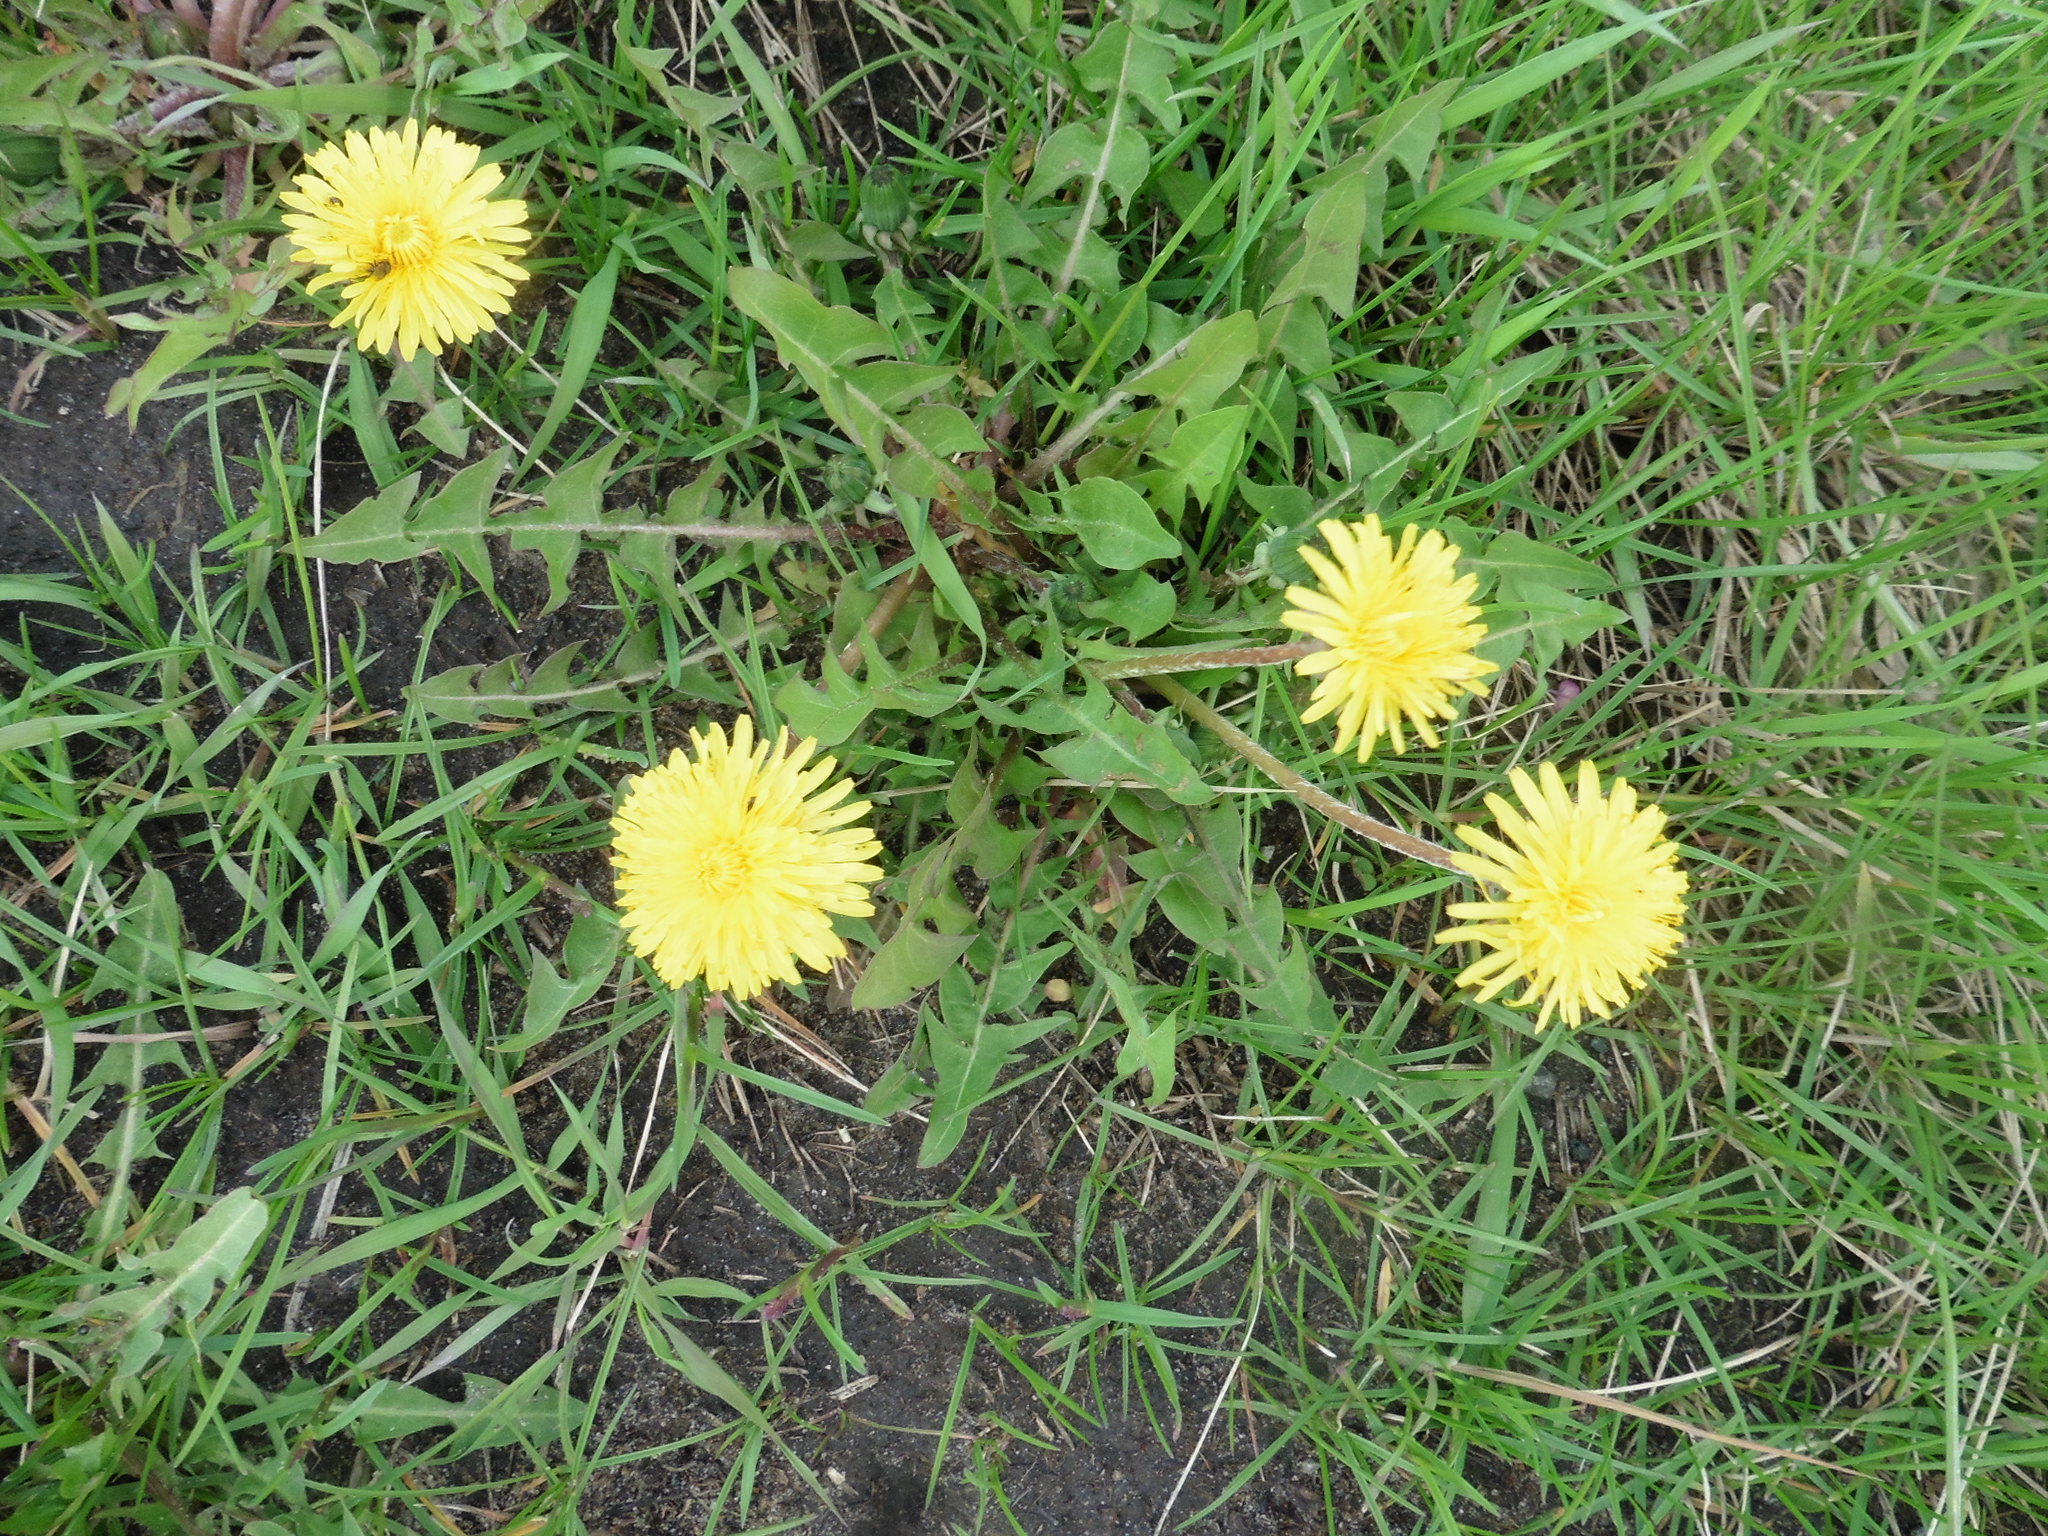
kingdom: Plantae
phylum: Tracheophyta
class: Magnoliopsida
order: Asterales
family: Asteraceae
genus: Taraxacum
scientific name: Taraxacum officinale
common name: Common dandelion
